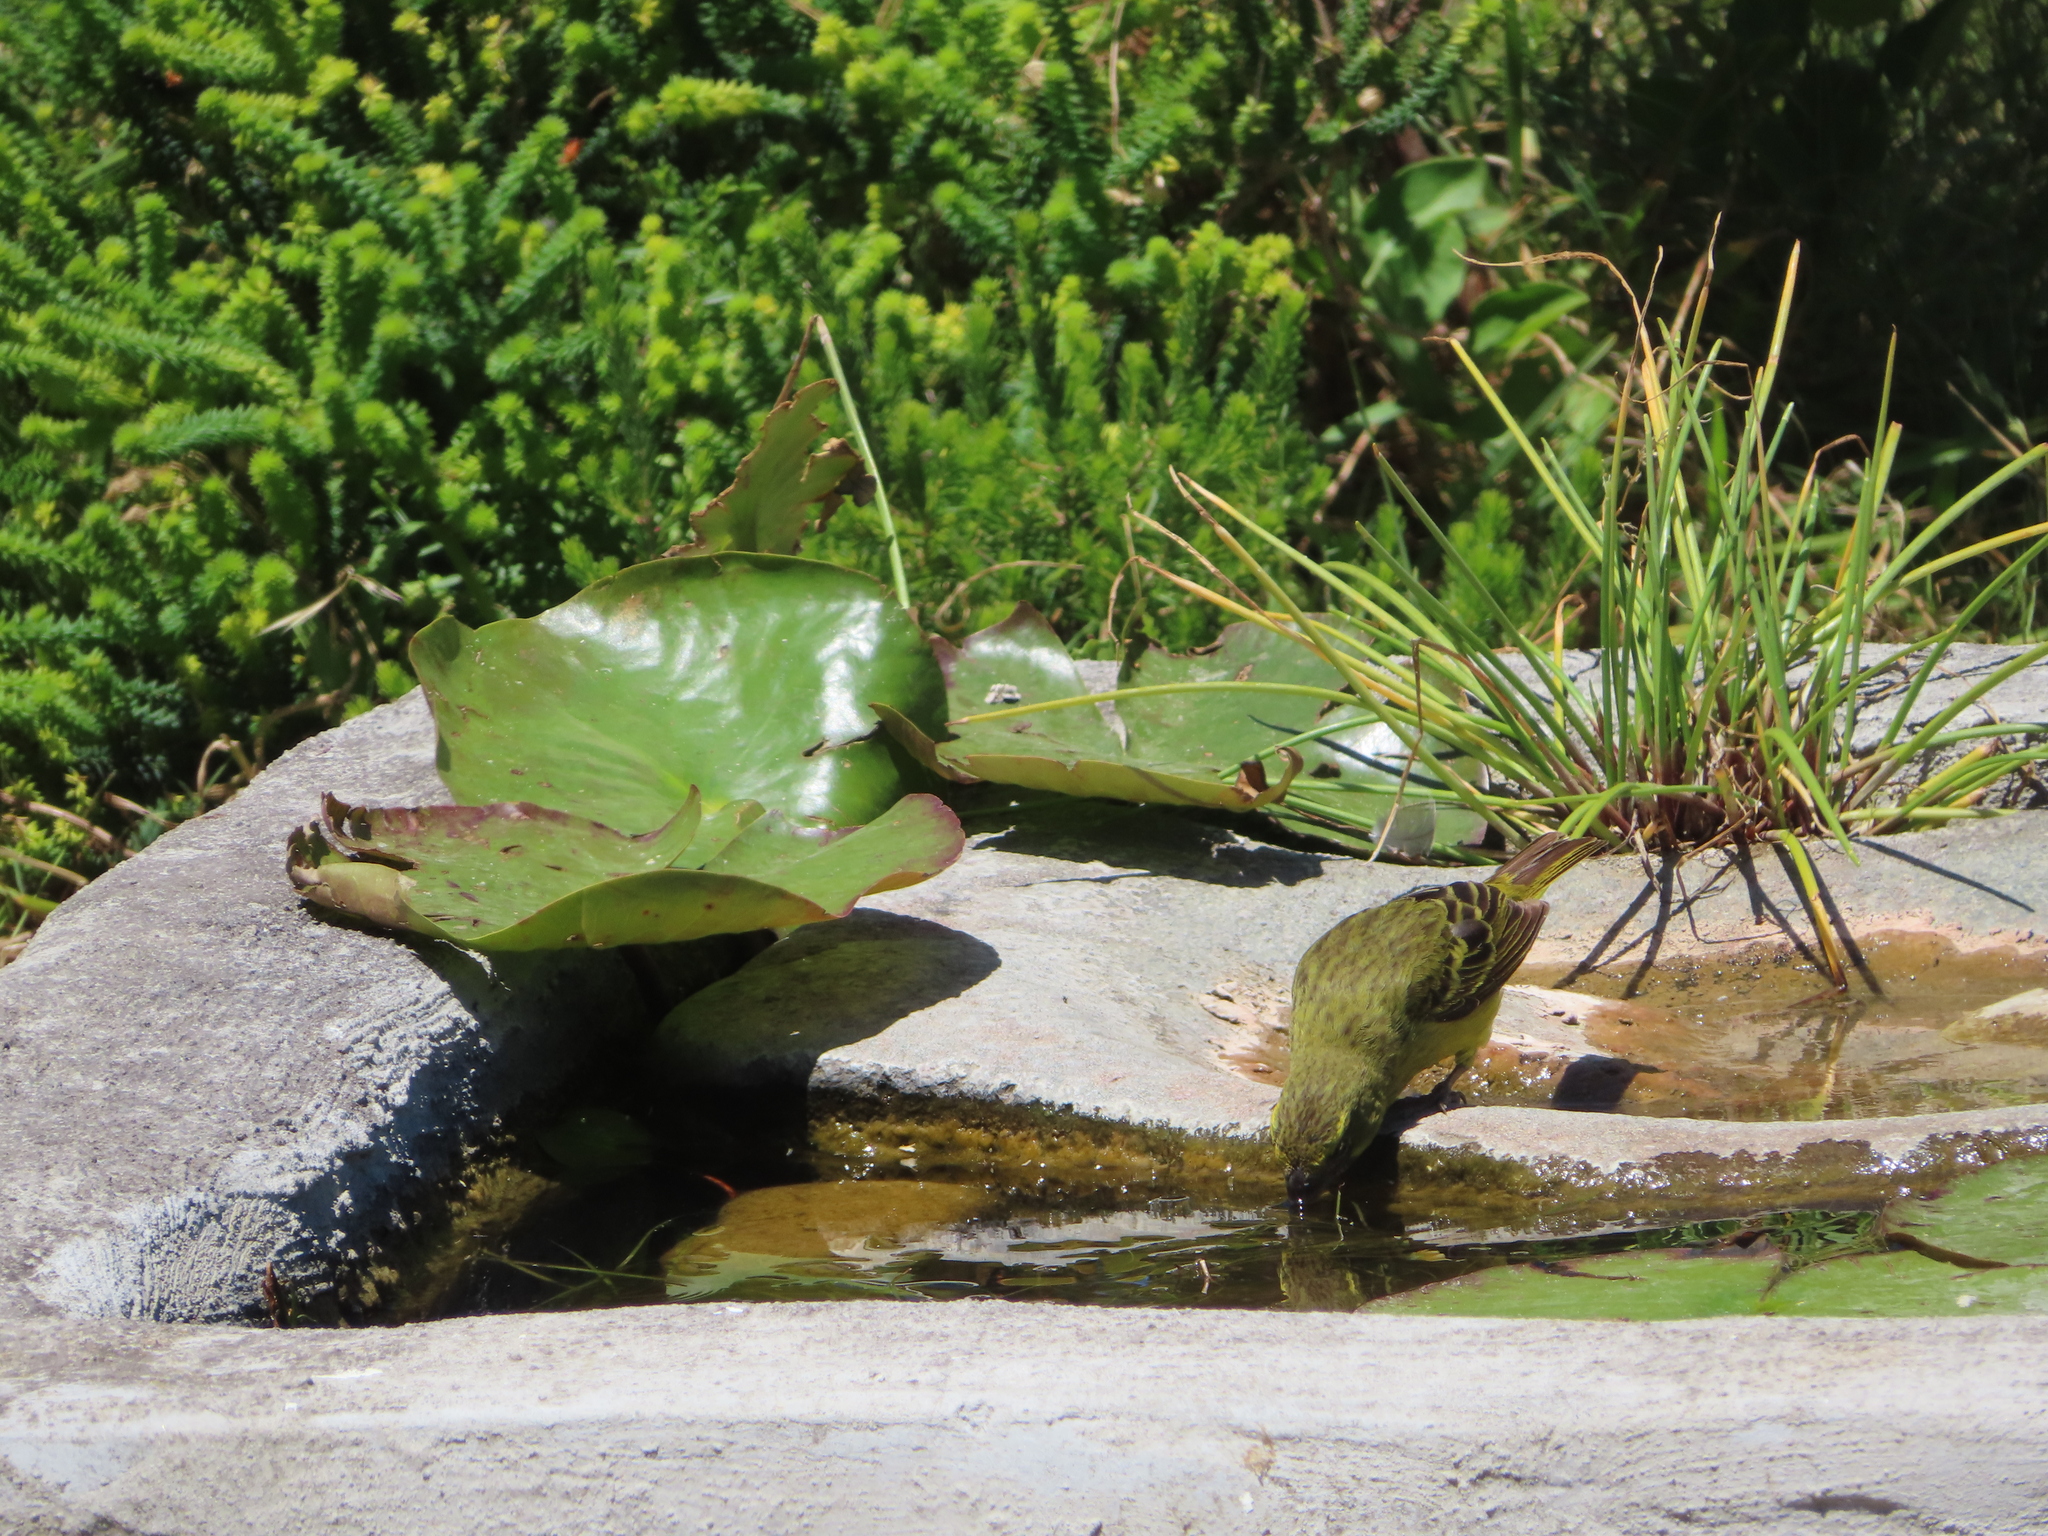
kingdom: Animalia
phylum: Chordata
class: Aves
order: Passeriformes
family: Ploceidae
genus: Ploceus
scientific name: Ploceus capensis
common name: Cape weaver
